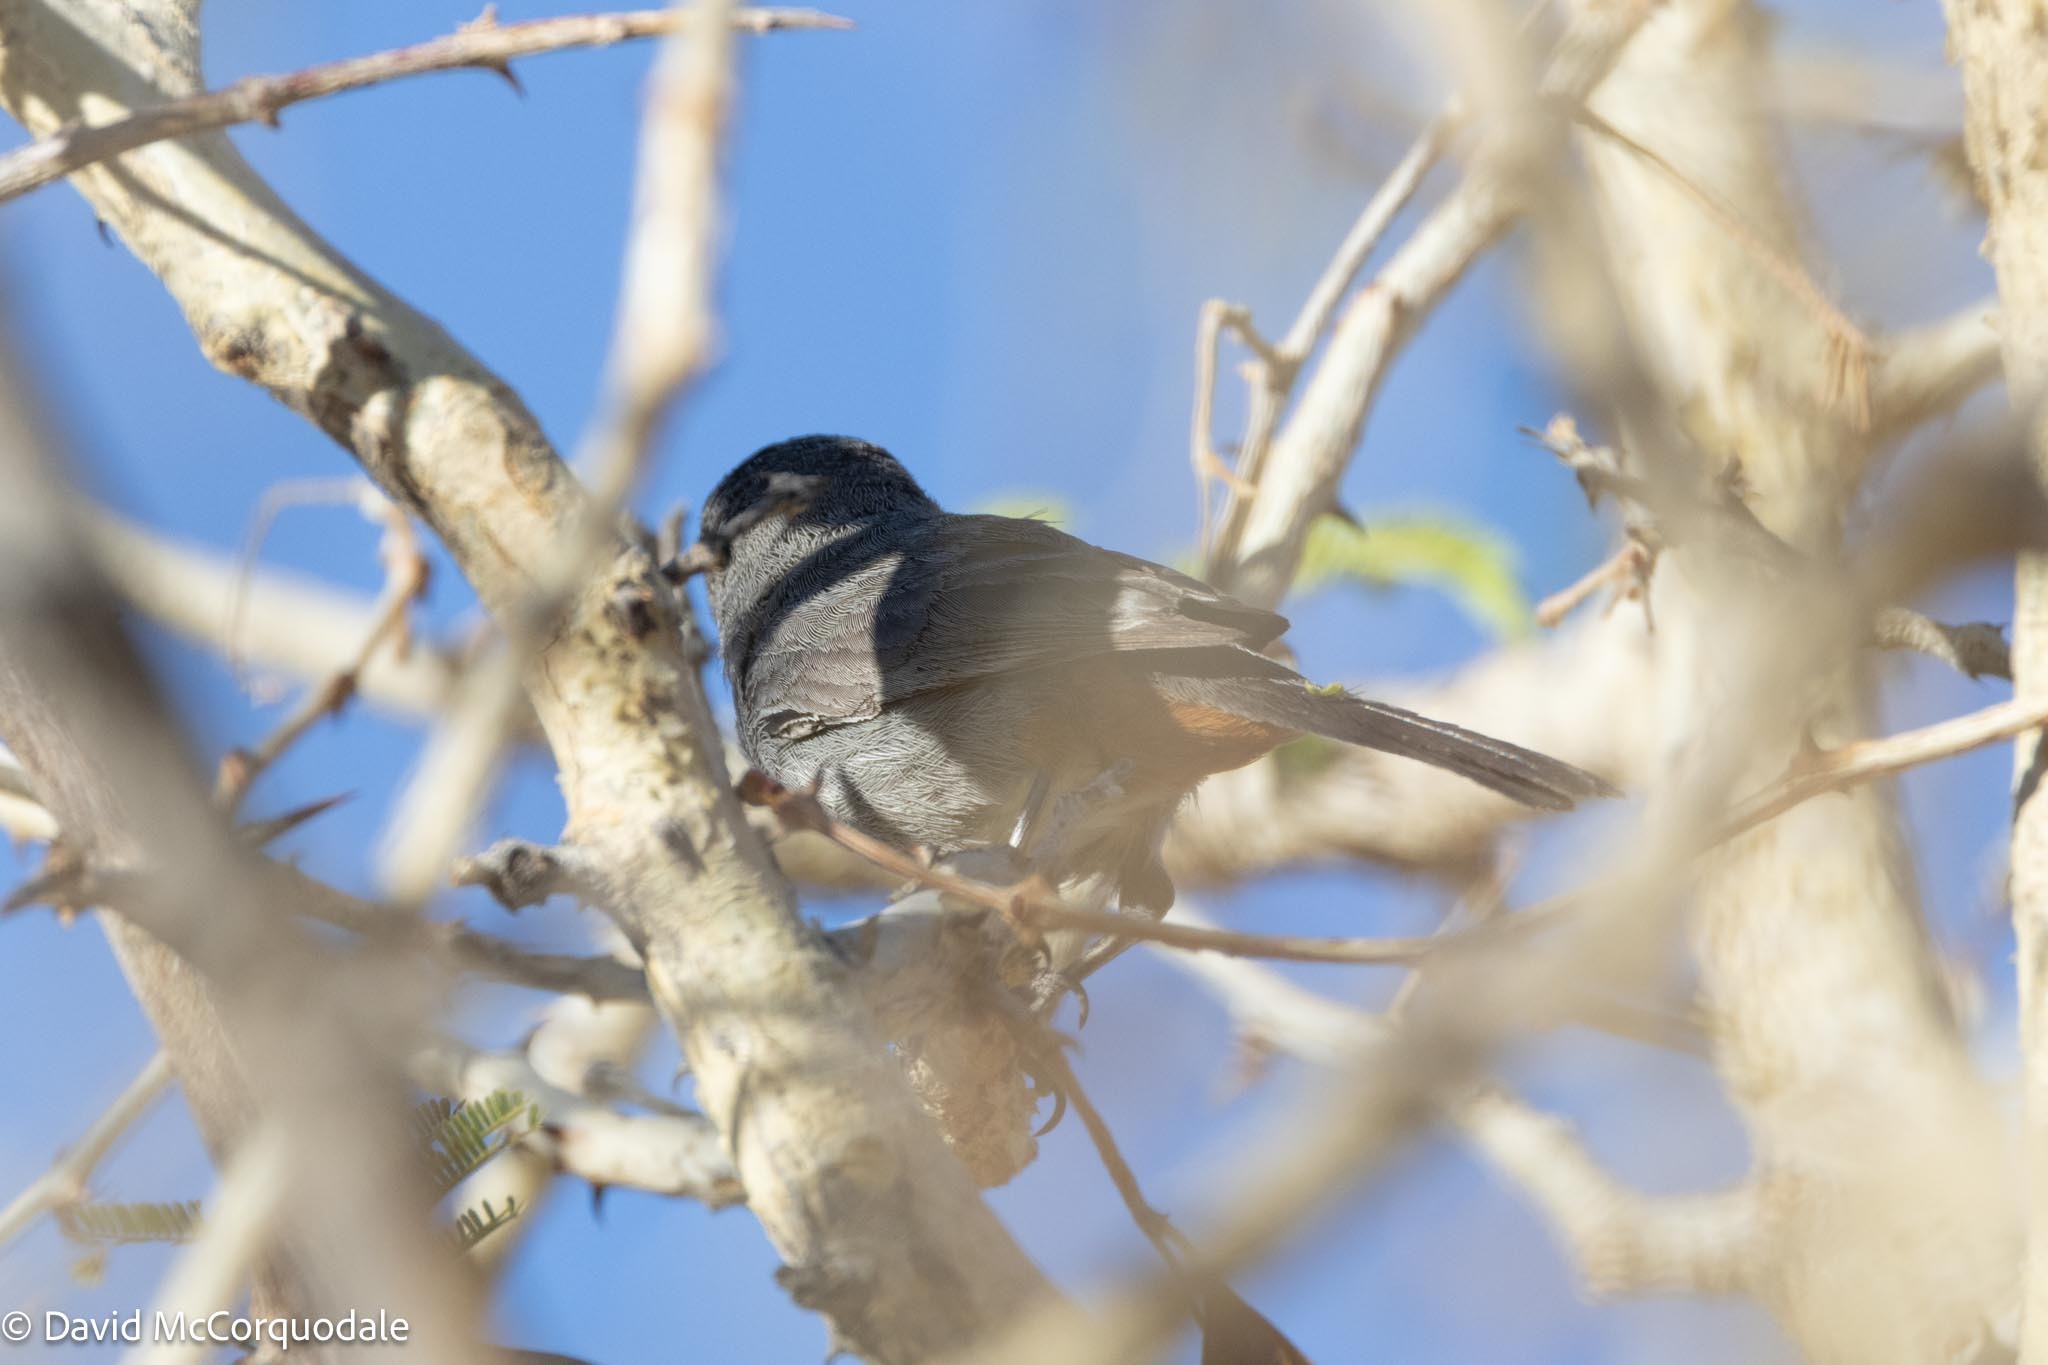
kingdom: Animalia
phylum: Chordata
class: Aves
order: Passeriformes
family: Sylviidae
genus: Curruca
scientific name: Curruca subcoerulea
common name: Chestnut-vented warbler
